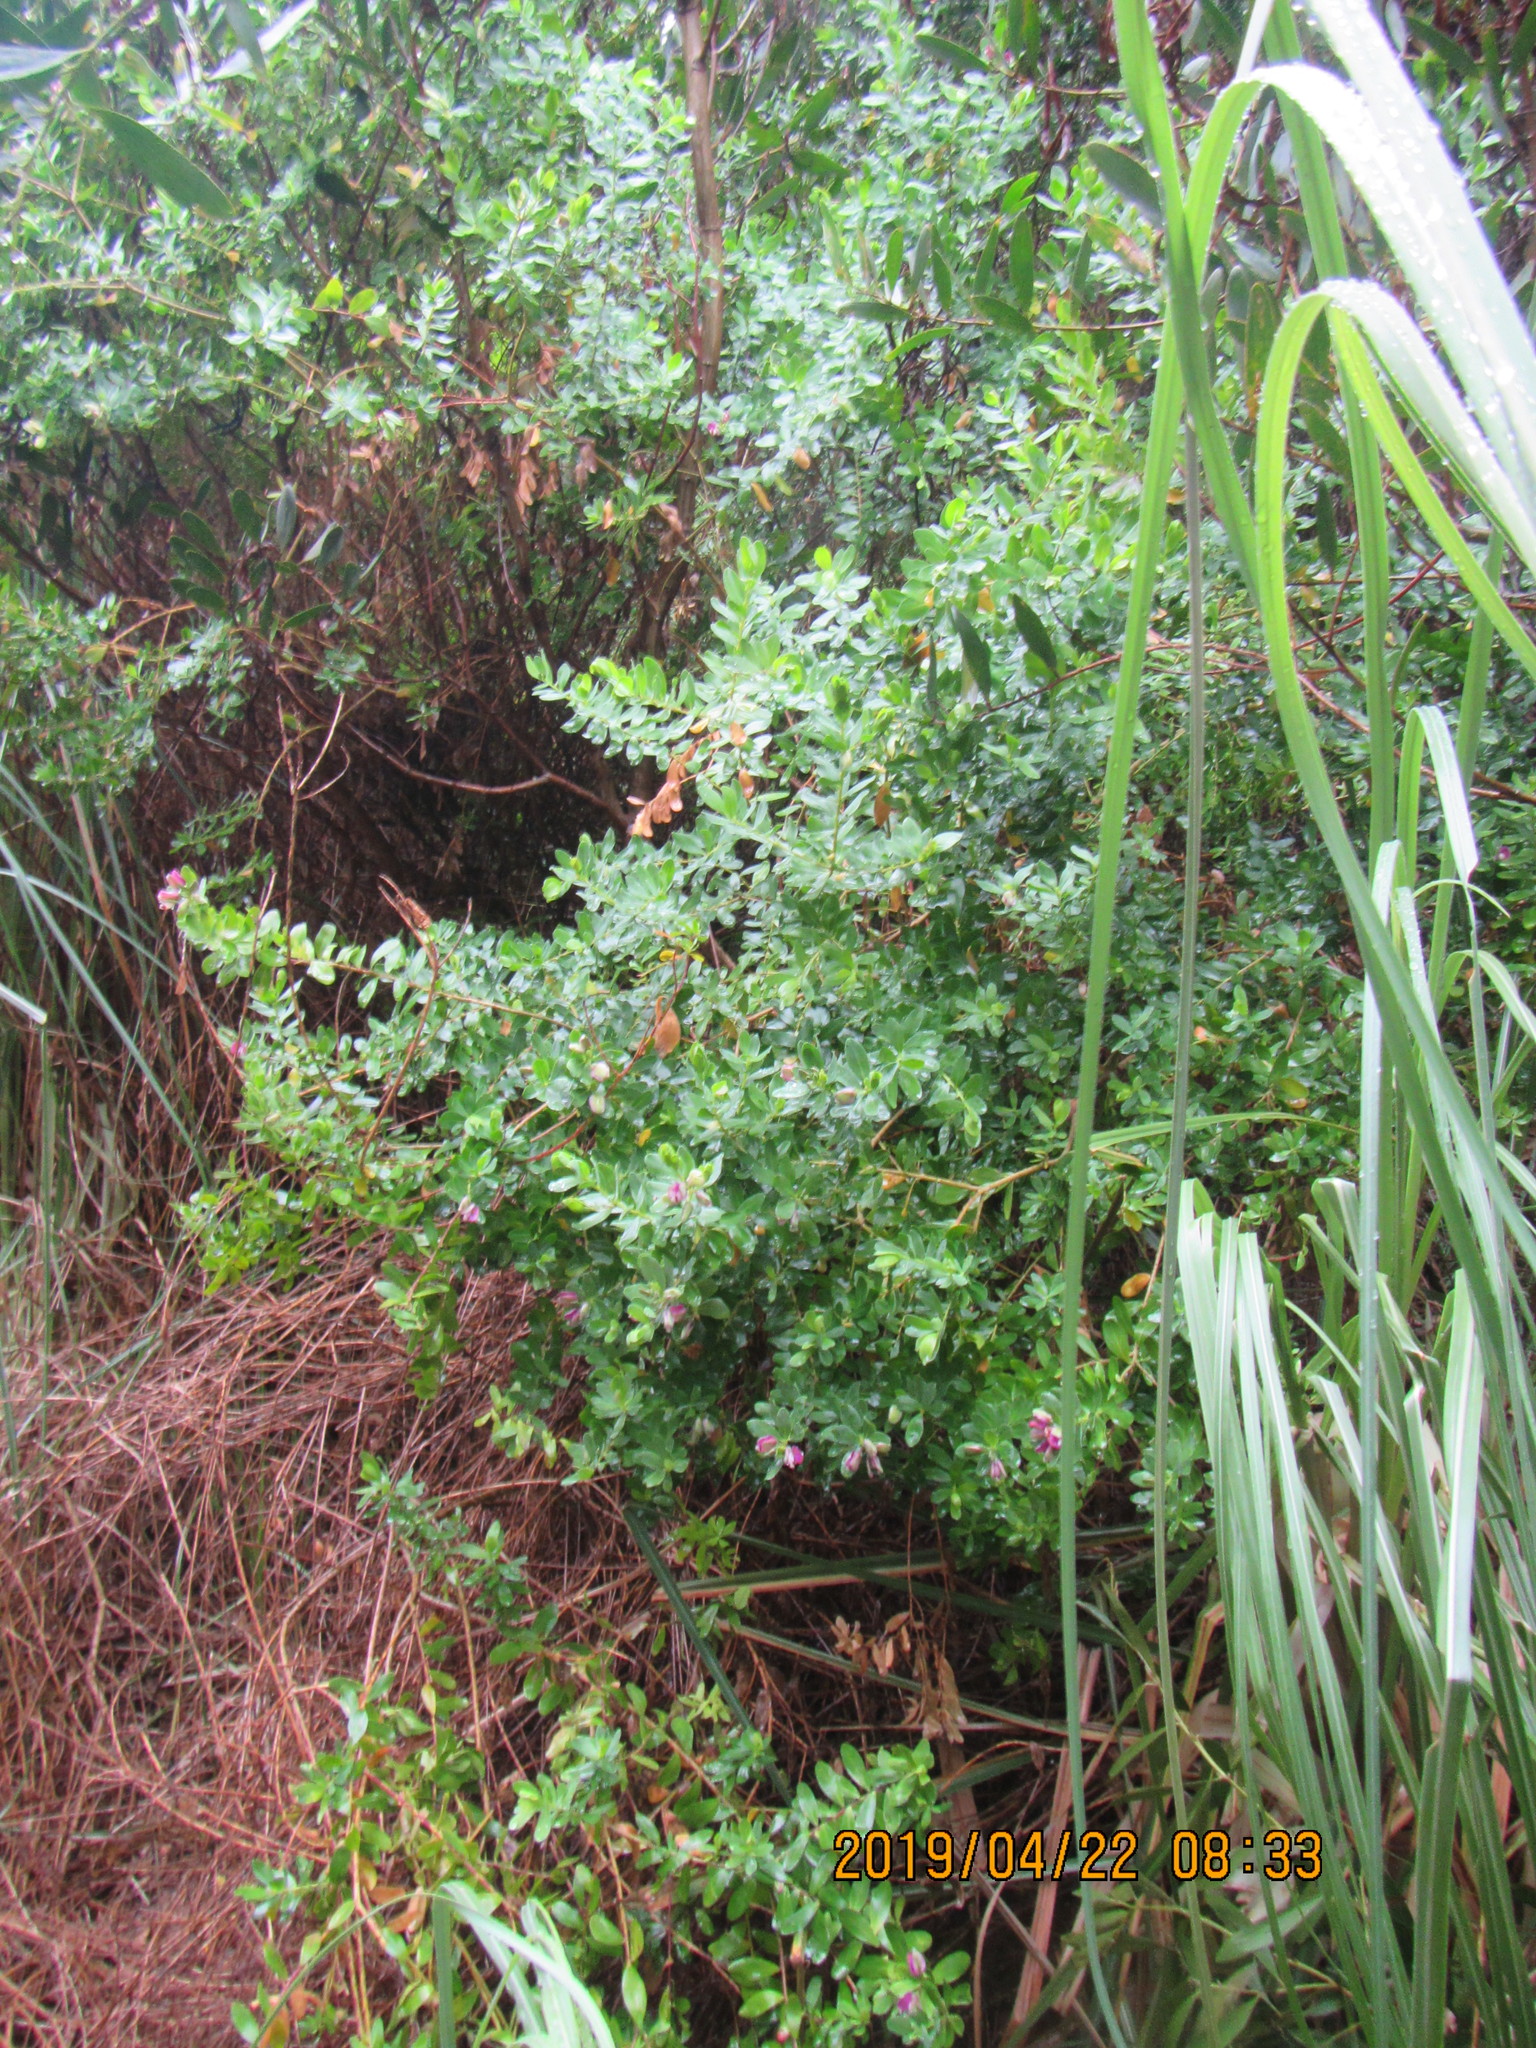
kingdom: Plantae
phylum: Tracheophyta
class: Magnoliopsida
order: Fabales
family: Polygalaceae
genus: Polygala
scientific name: Polygala myrtifolia
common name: Myrtle-leaf milkwort
